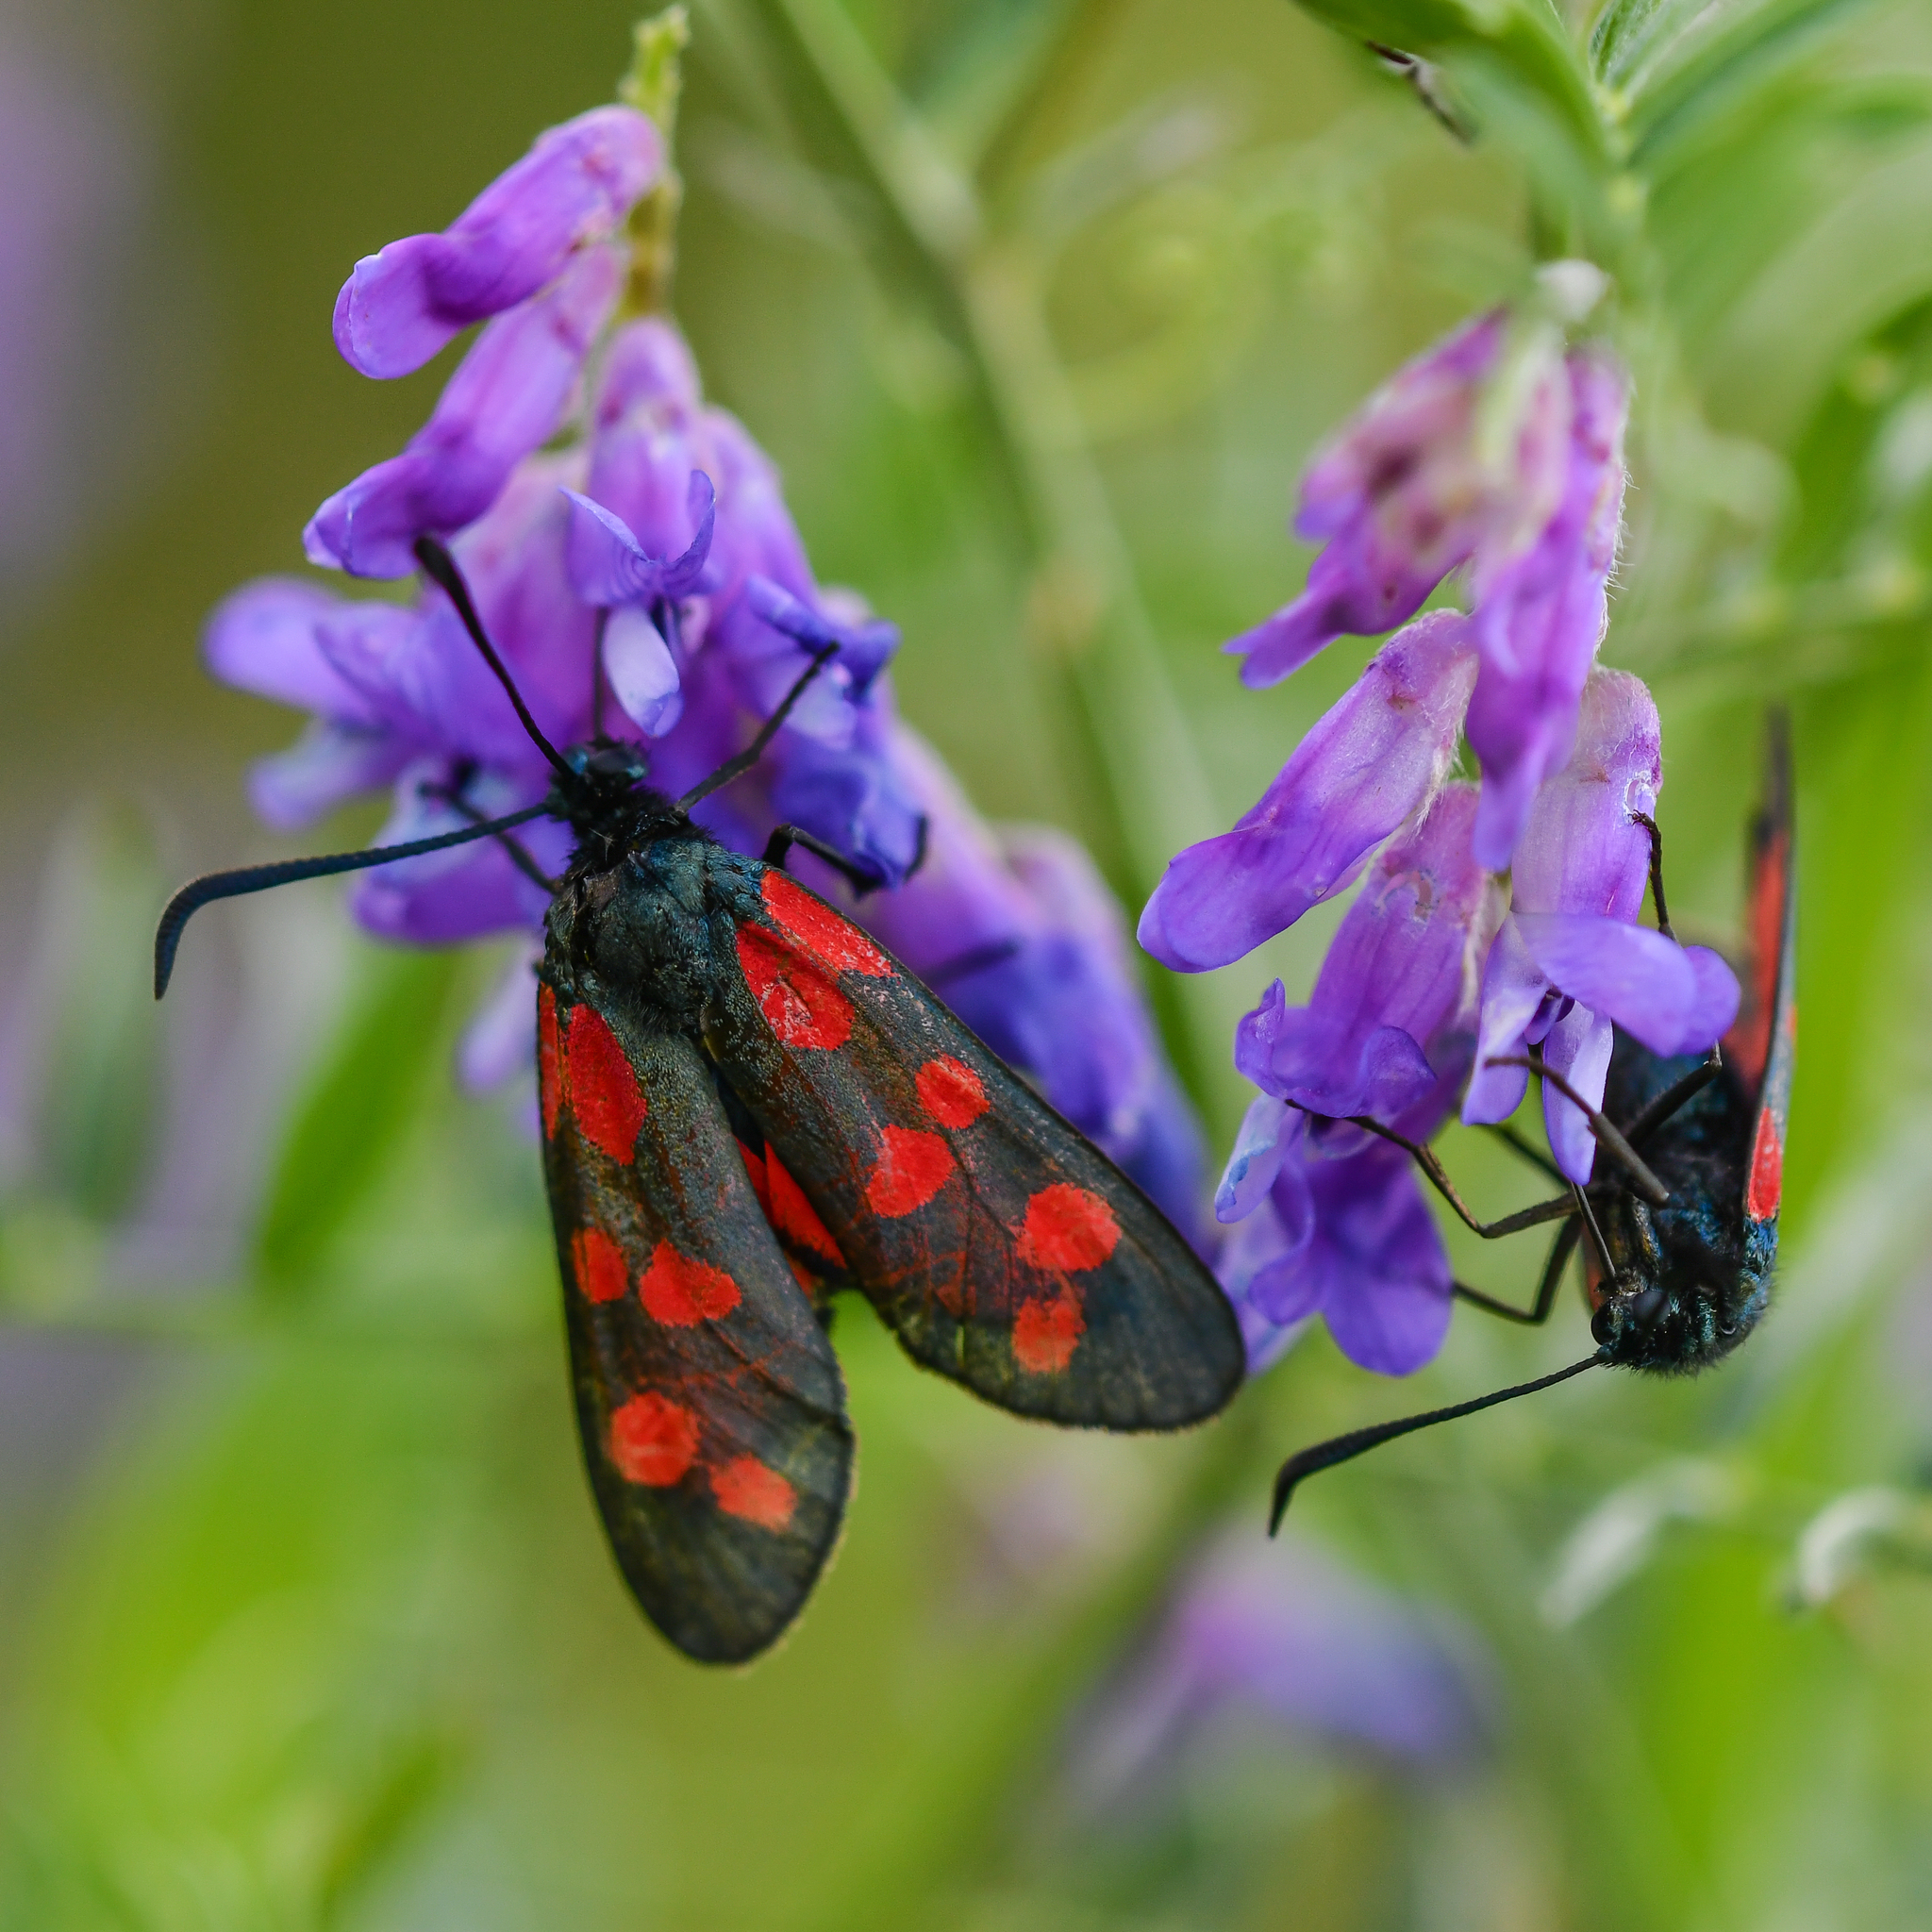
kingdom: Animalia
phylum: Arthropoda
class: Insecta
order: Lepidoptera
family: Zygaenidae
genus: Zygaena
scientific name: Zygaena filipendulae
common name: Six-spot burnet
